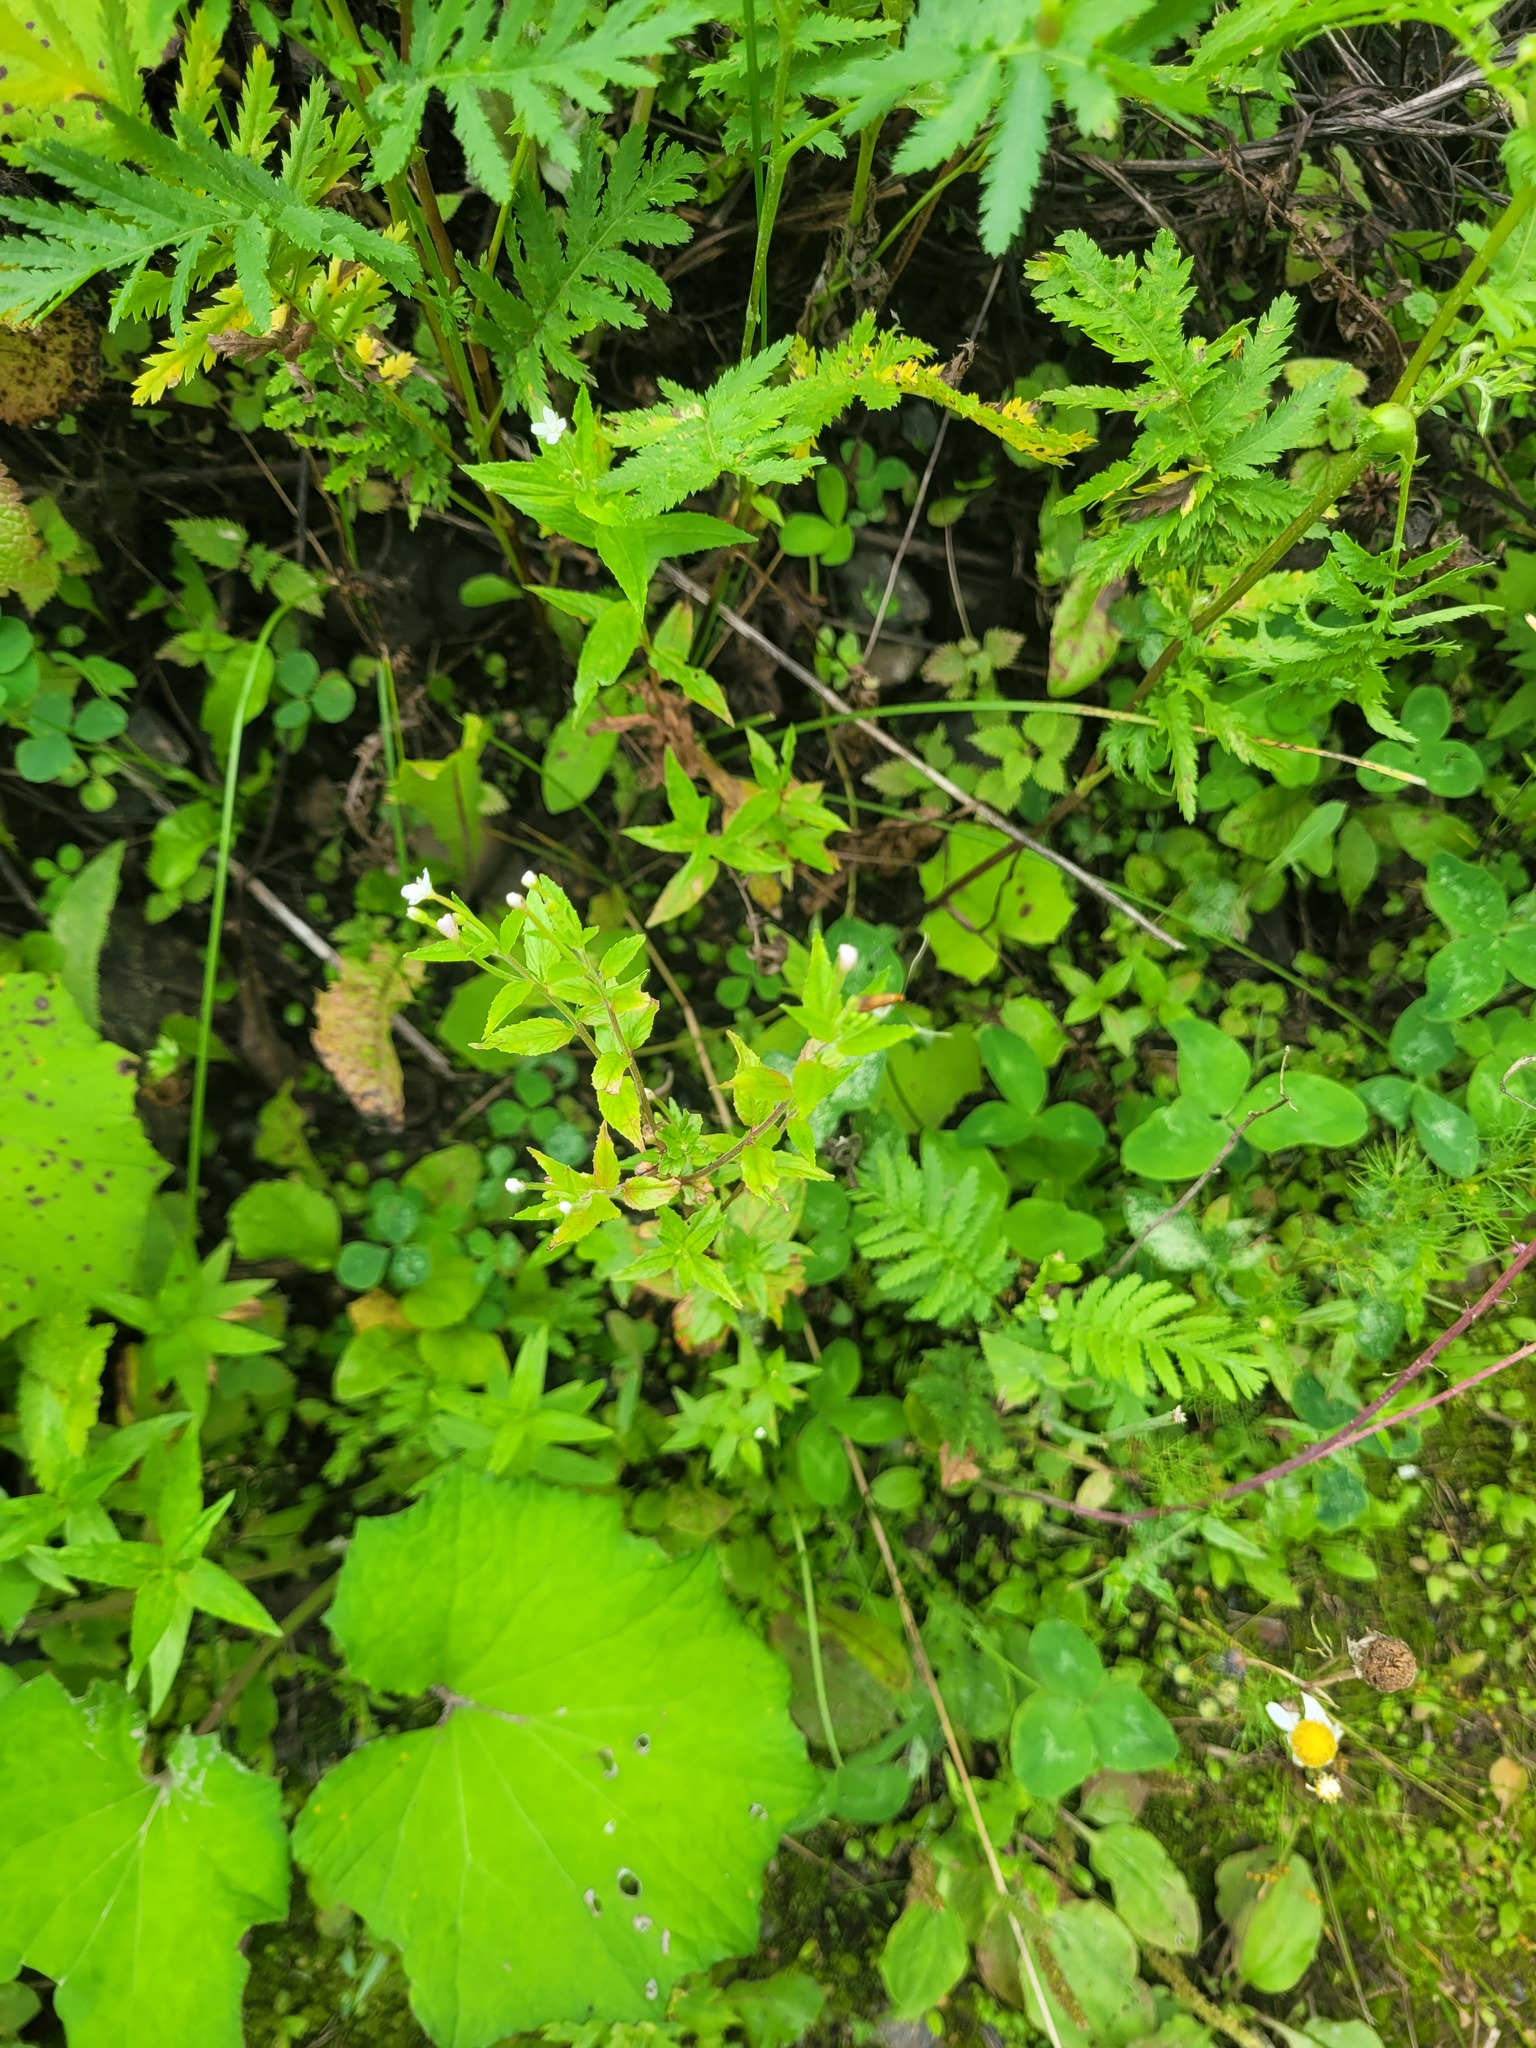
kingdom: Plantae
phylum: Tracheophyta
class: Magnoliopsida
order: Myrtales
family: Onagraceae
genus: Epilobium
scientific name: Epilobium pseudorubescens
